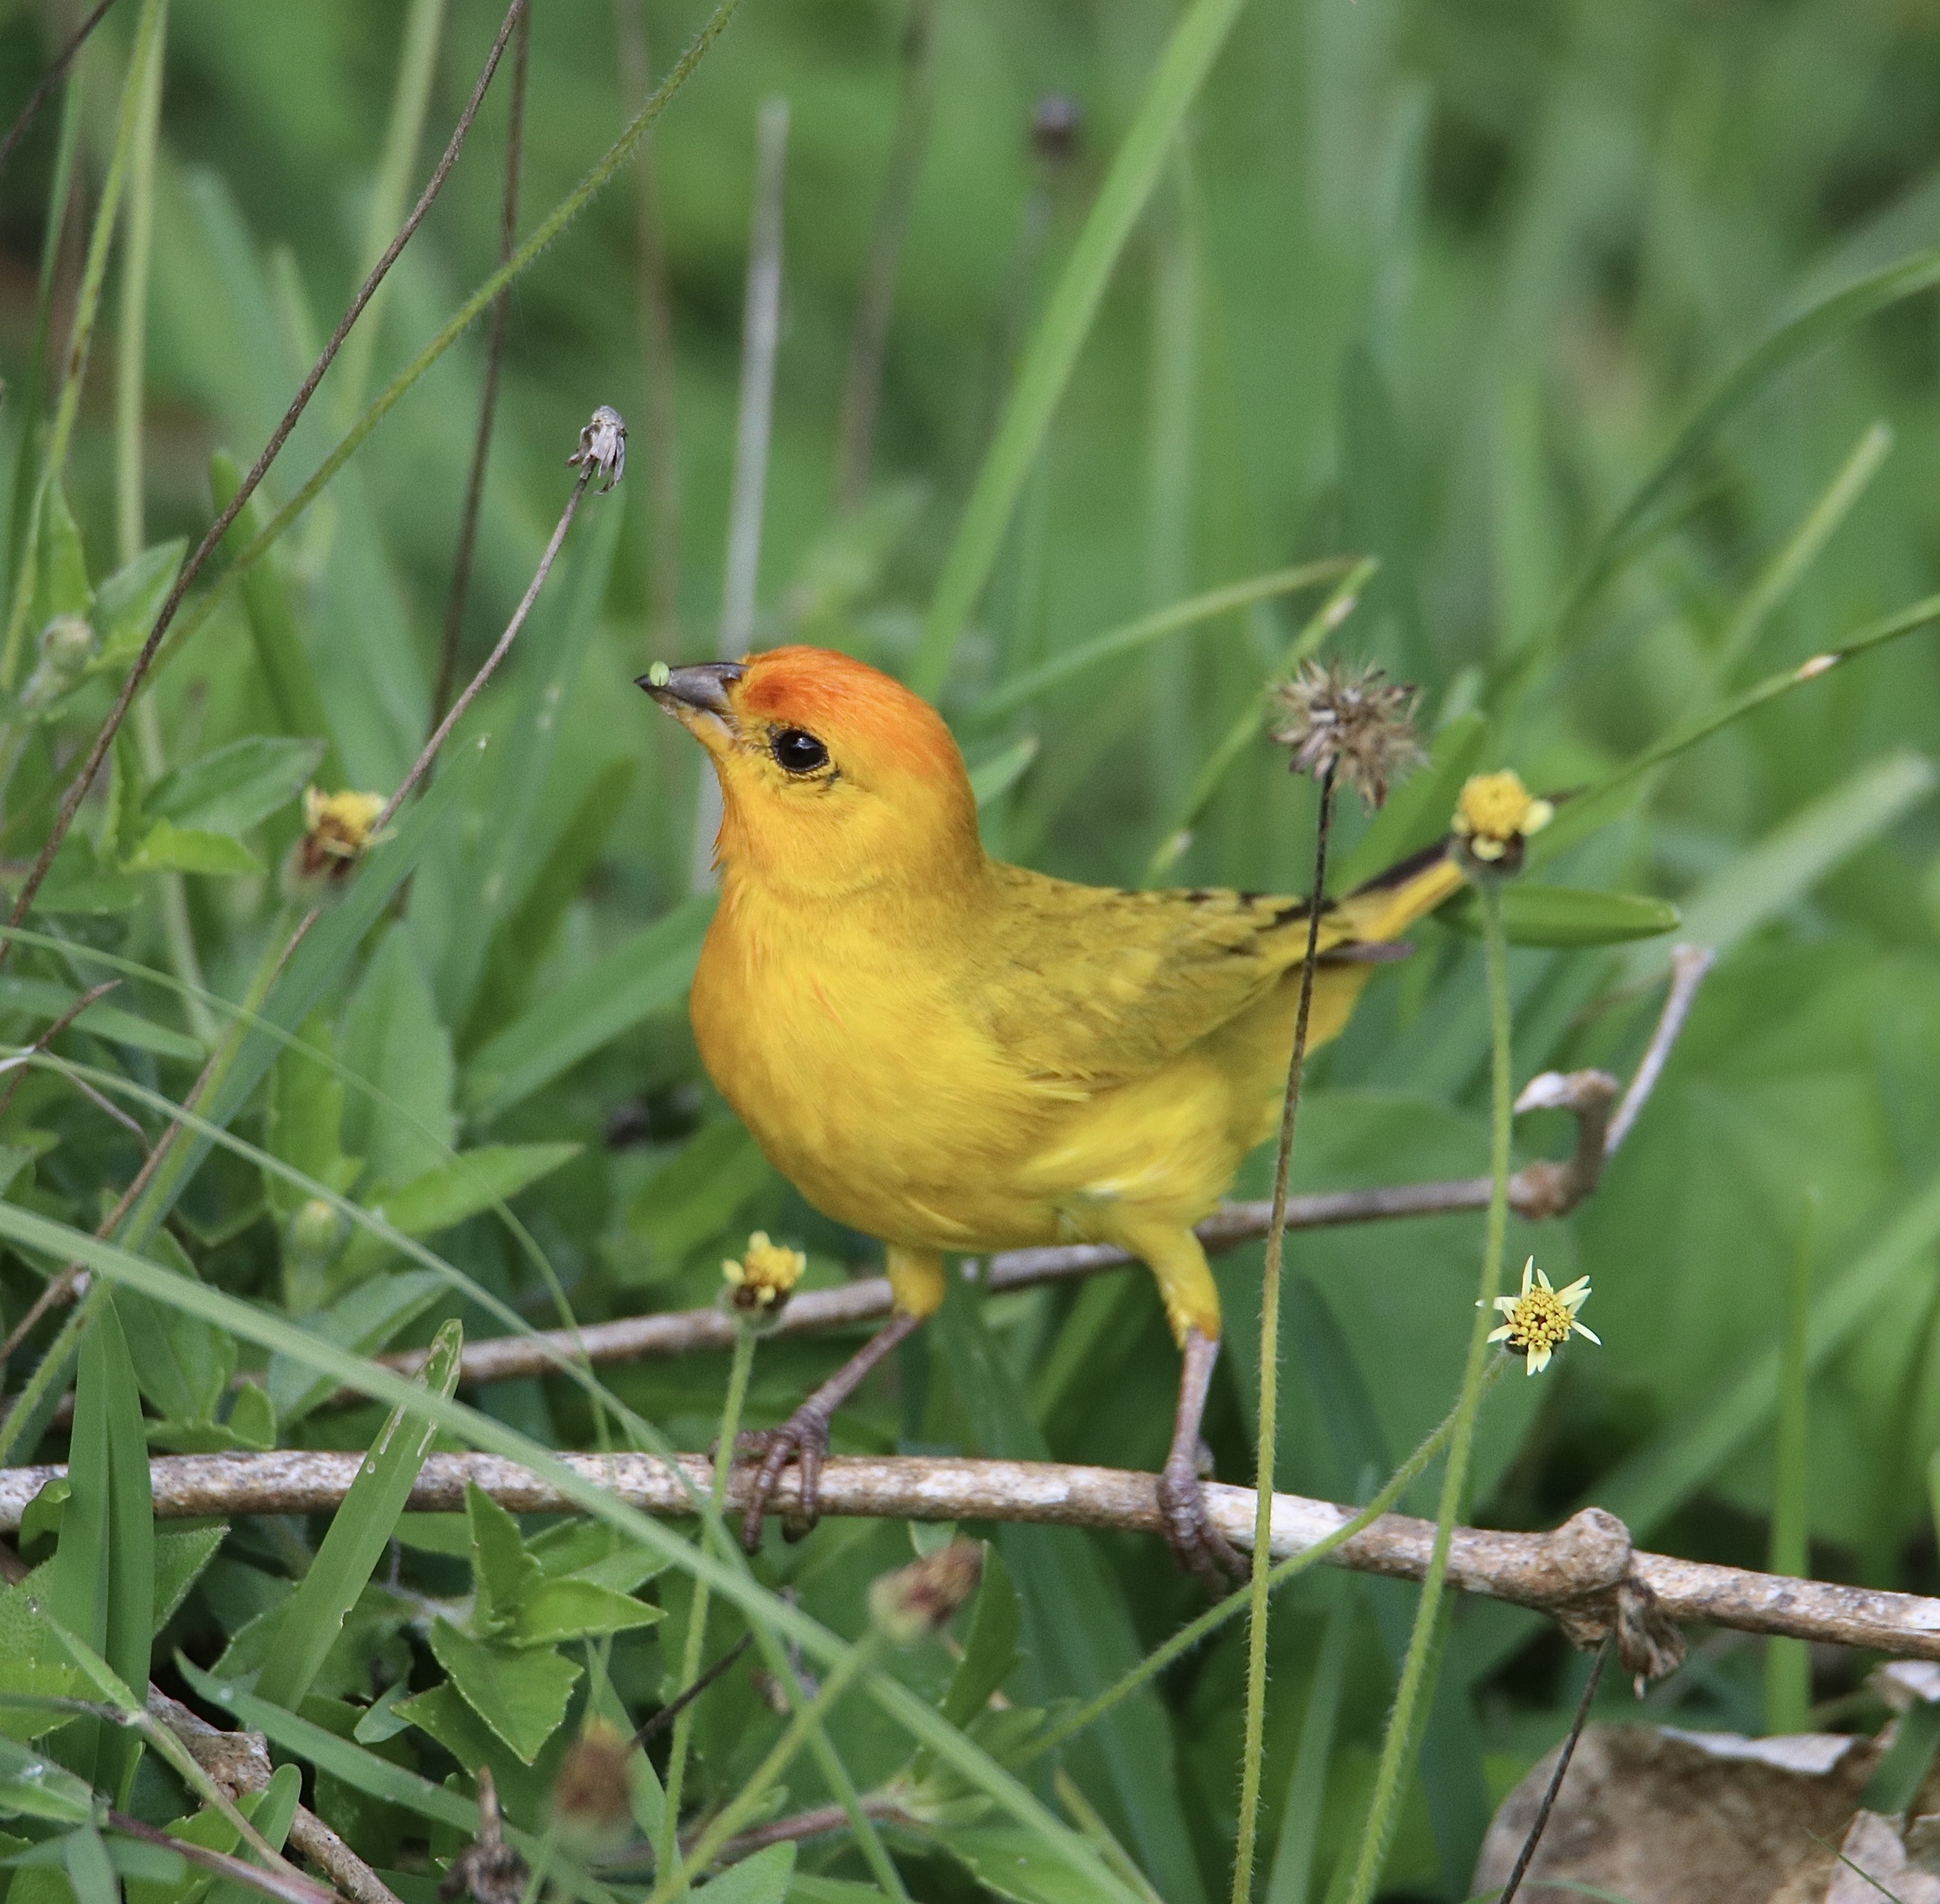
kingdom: Animalia
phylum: Chordata
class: Aves
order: Passeriformes
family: Thraupidae
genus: Sicalis
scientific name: Sicalis flaveola
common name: Saffron finch
